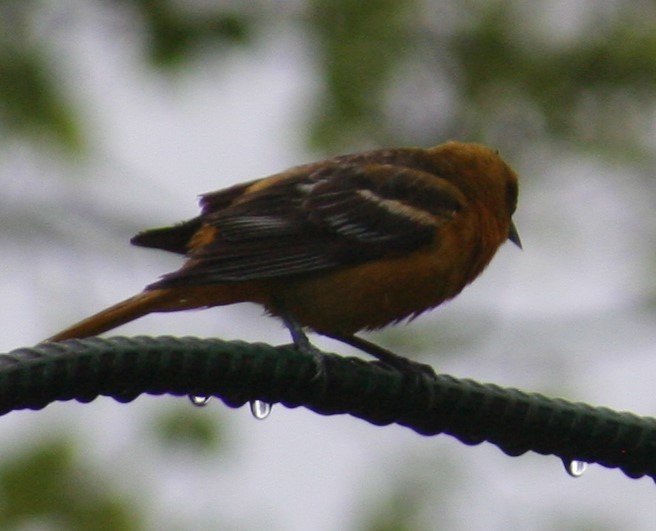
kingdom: Animalia
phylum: Chordata
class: Aves
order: Passeriformes
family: Icteridae
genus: Icterus
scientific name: Icterus galbula
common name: Baltimore oriole
